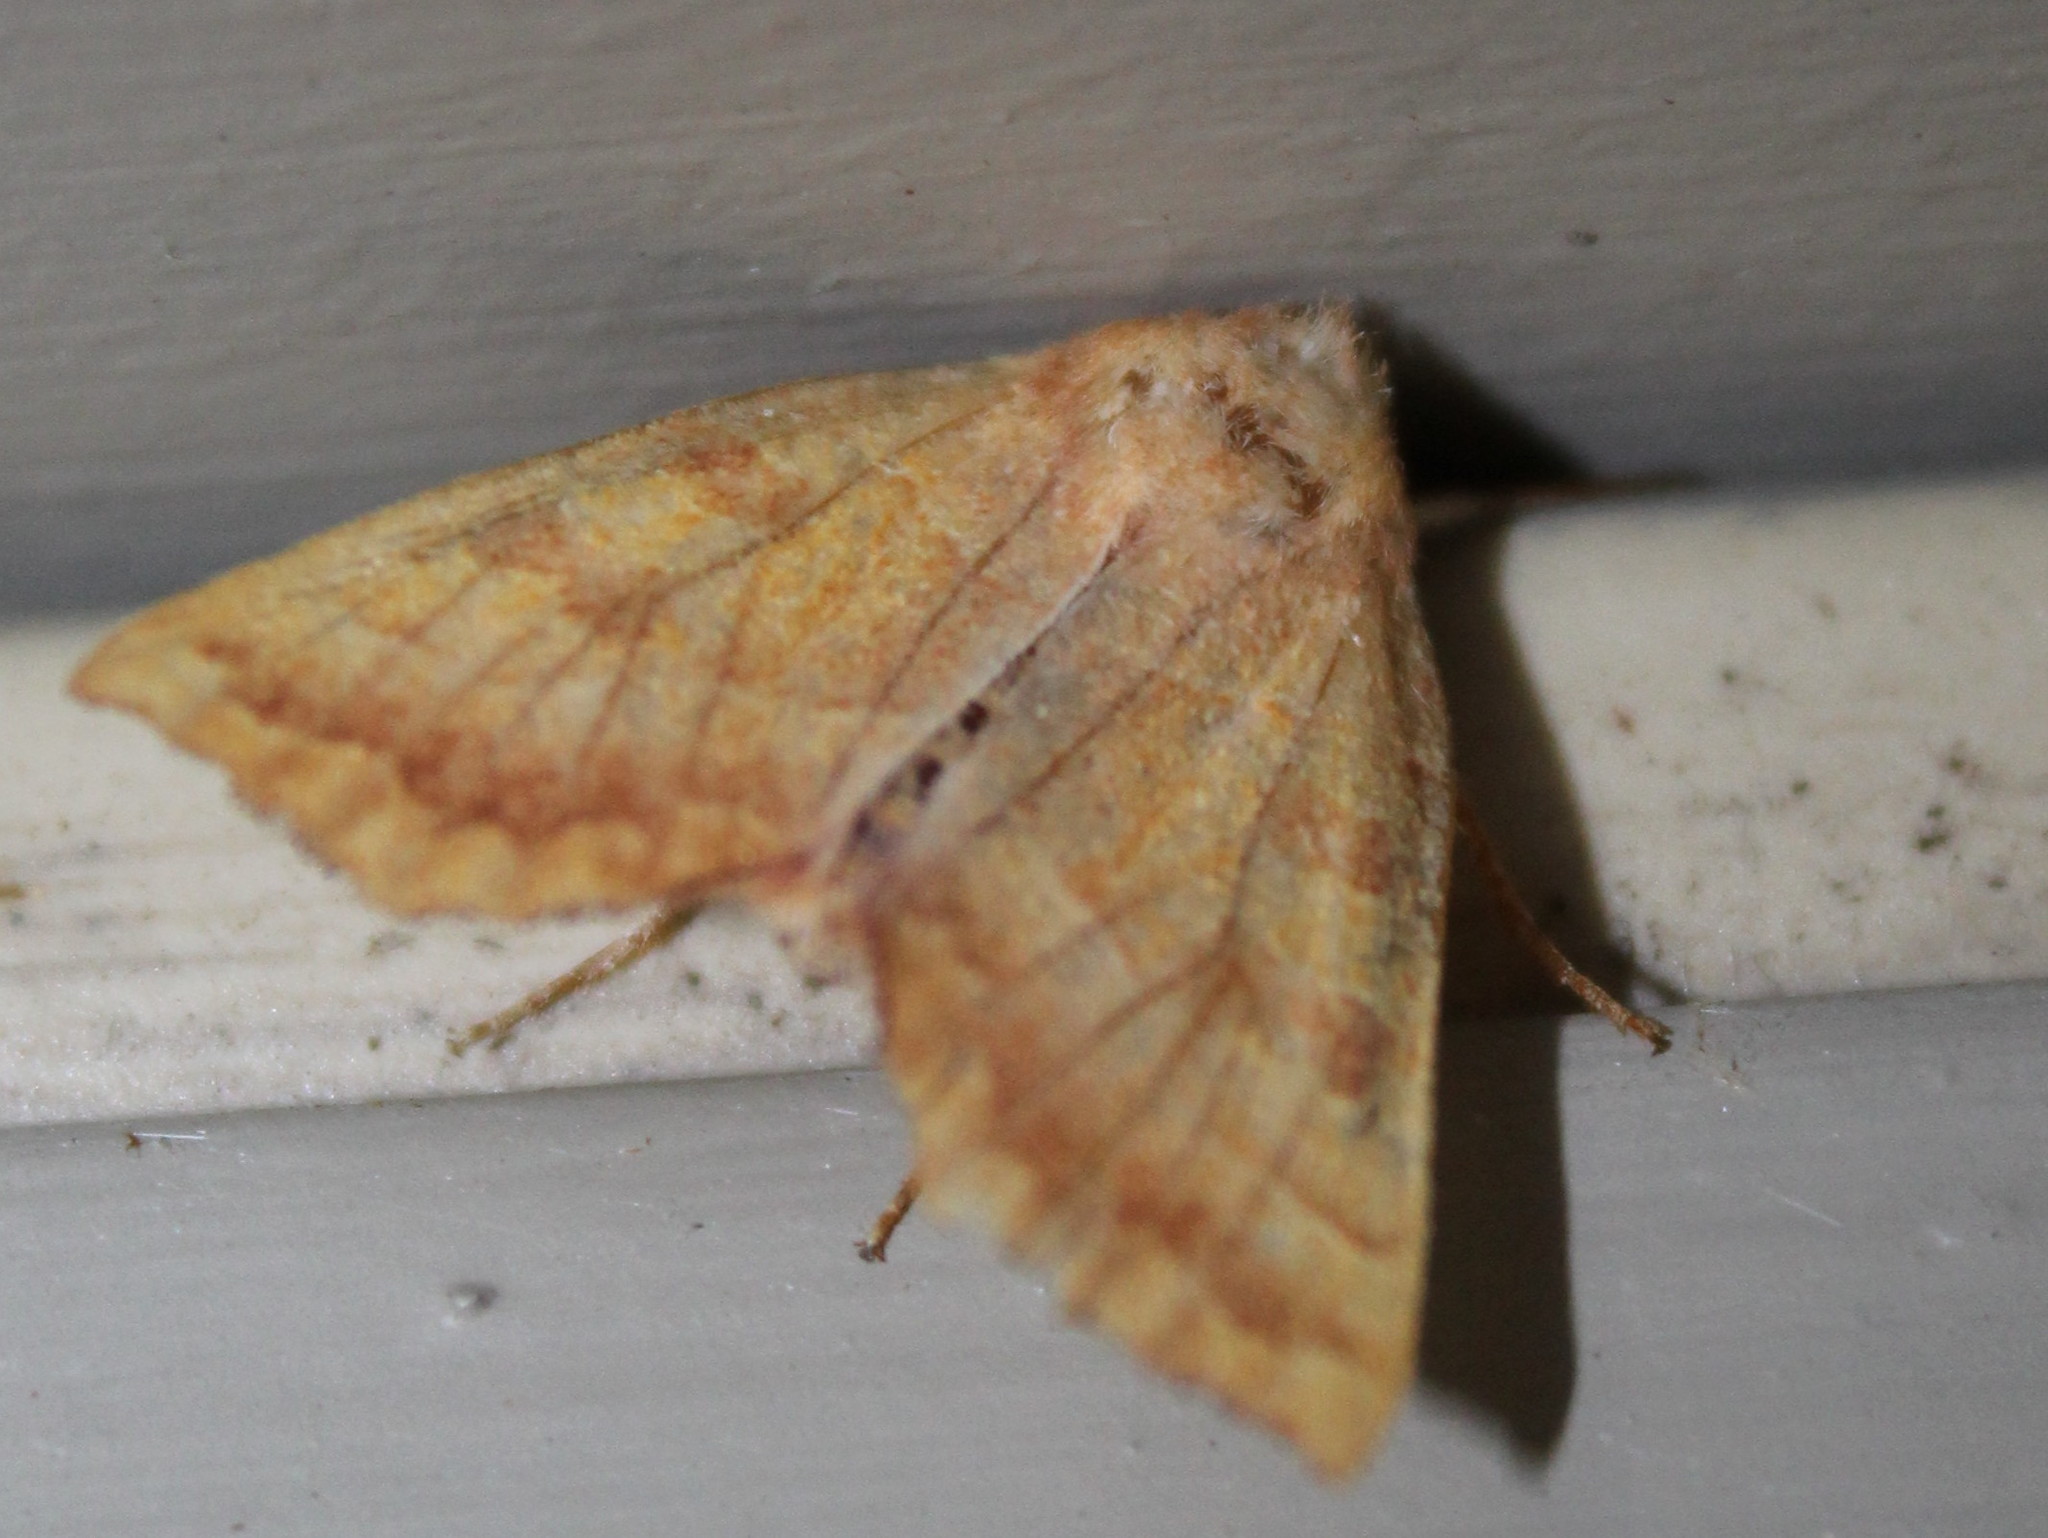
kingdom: Animalia
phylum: Arthropoda
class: Insecta
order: Lepidoptera
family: Noctuidae
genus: Eucirroedia
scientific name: Eucirroedia pampina
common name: Scalloped sallow
